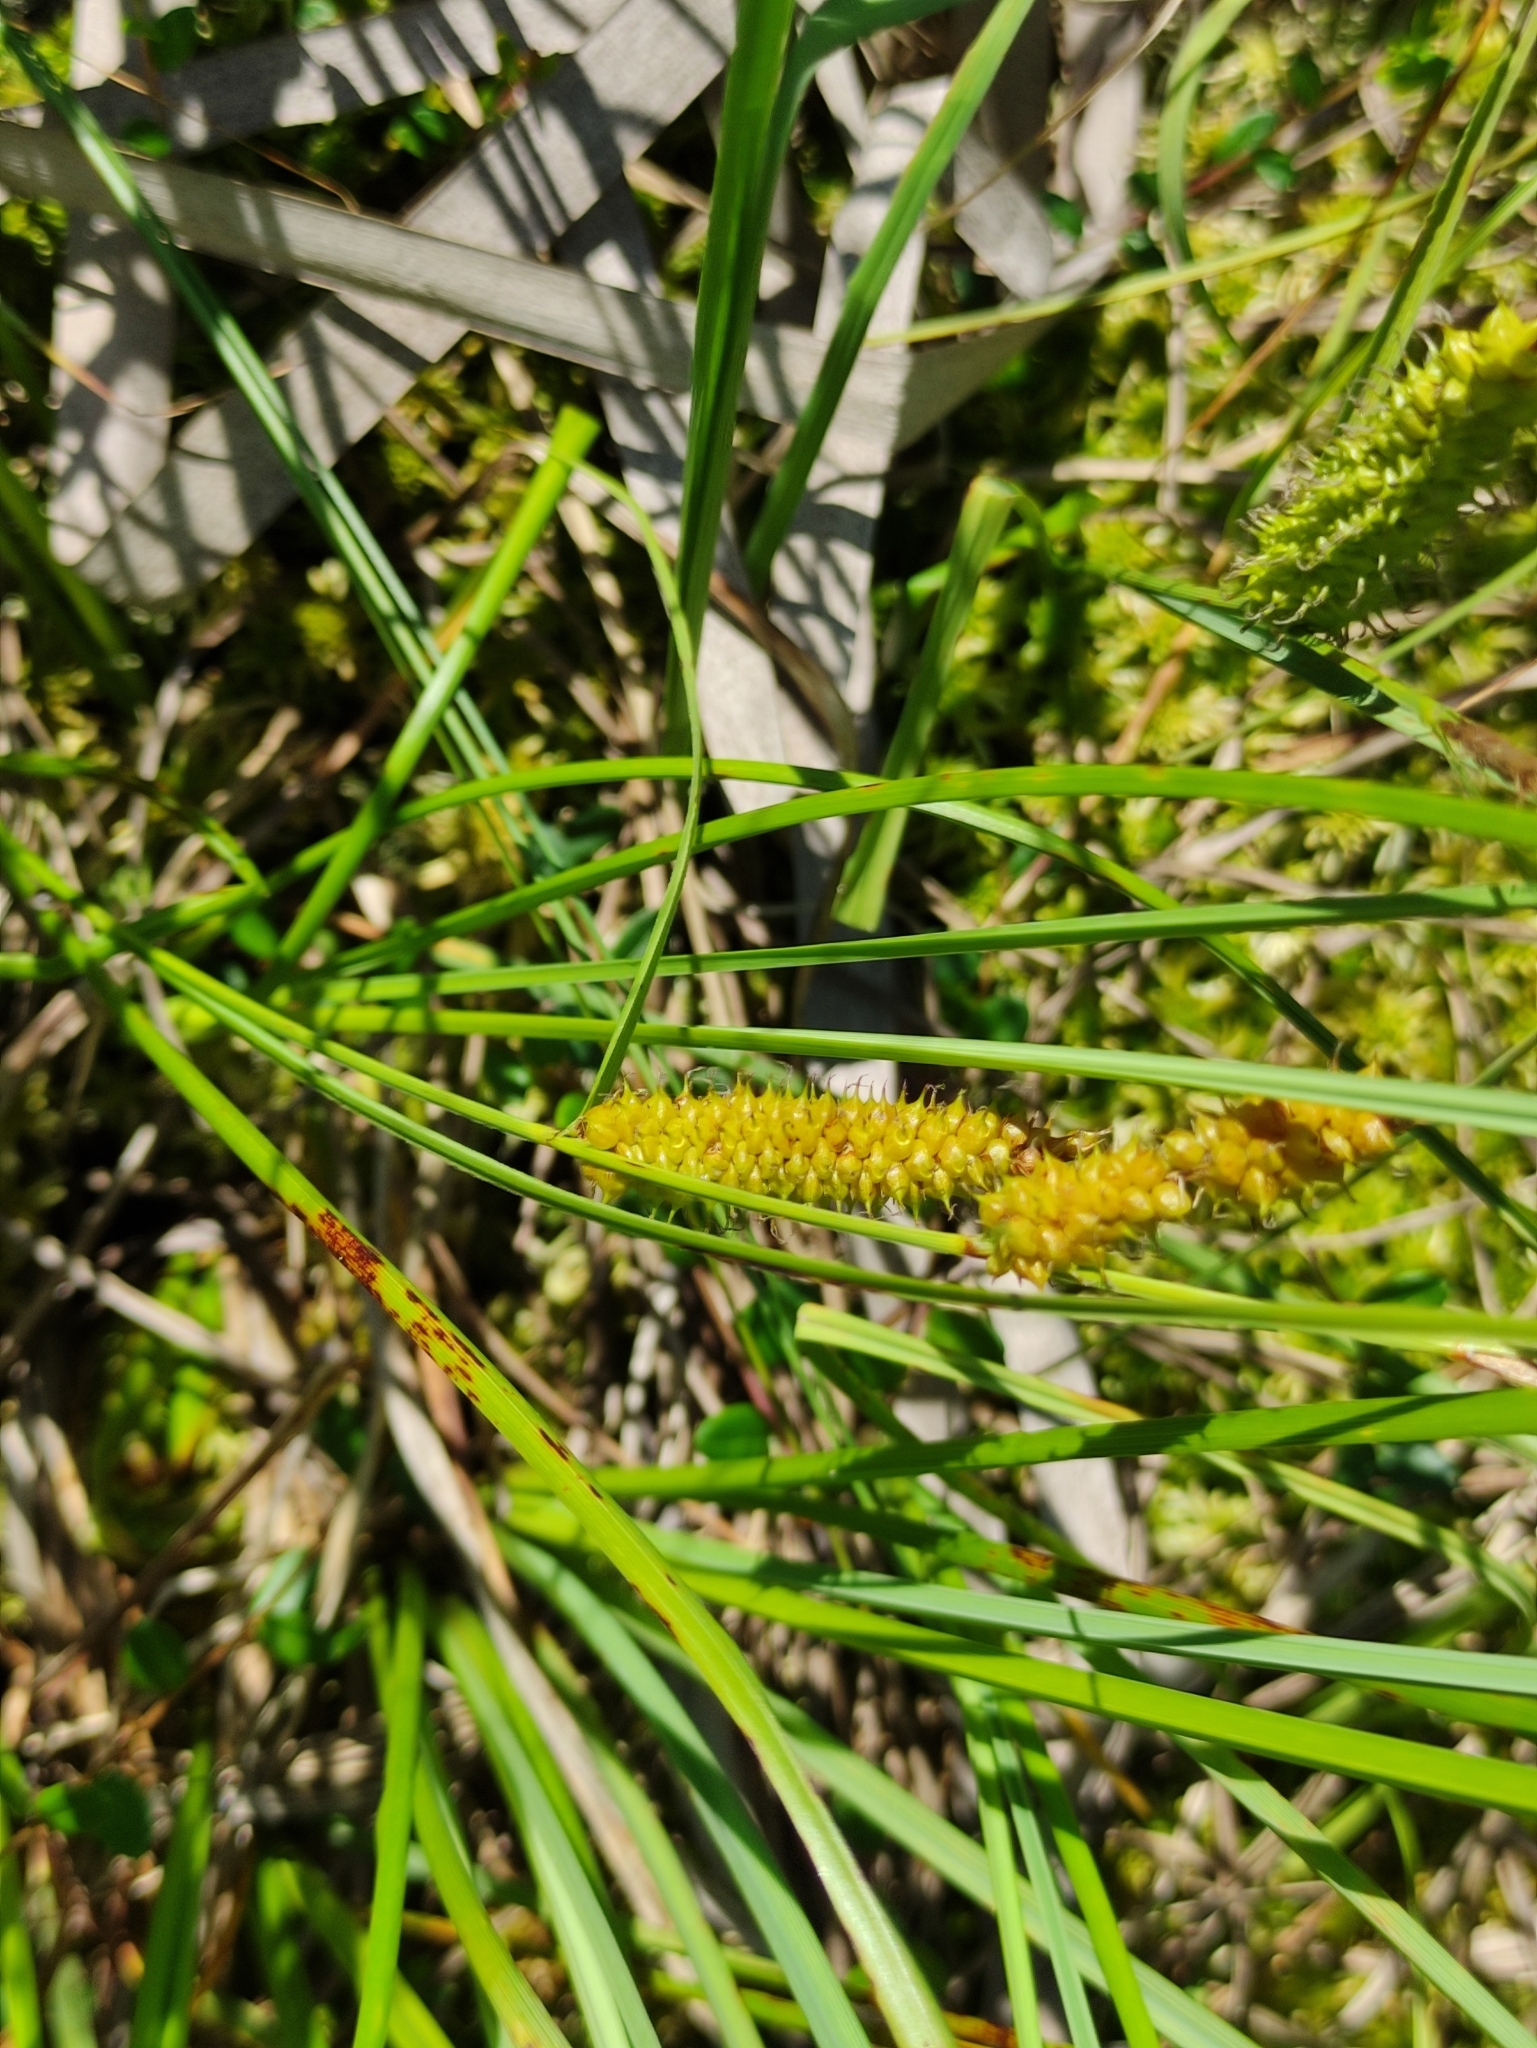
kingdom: Plantae
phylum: Tracheophyta
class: Liliopsida
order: Poales
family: Cyperaceae
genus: Carex
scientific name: Carex rostrata
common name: Bottle sedge
